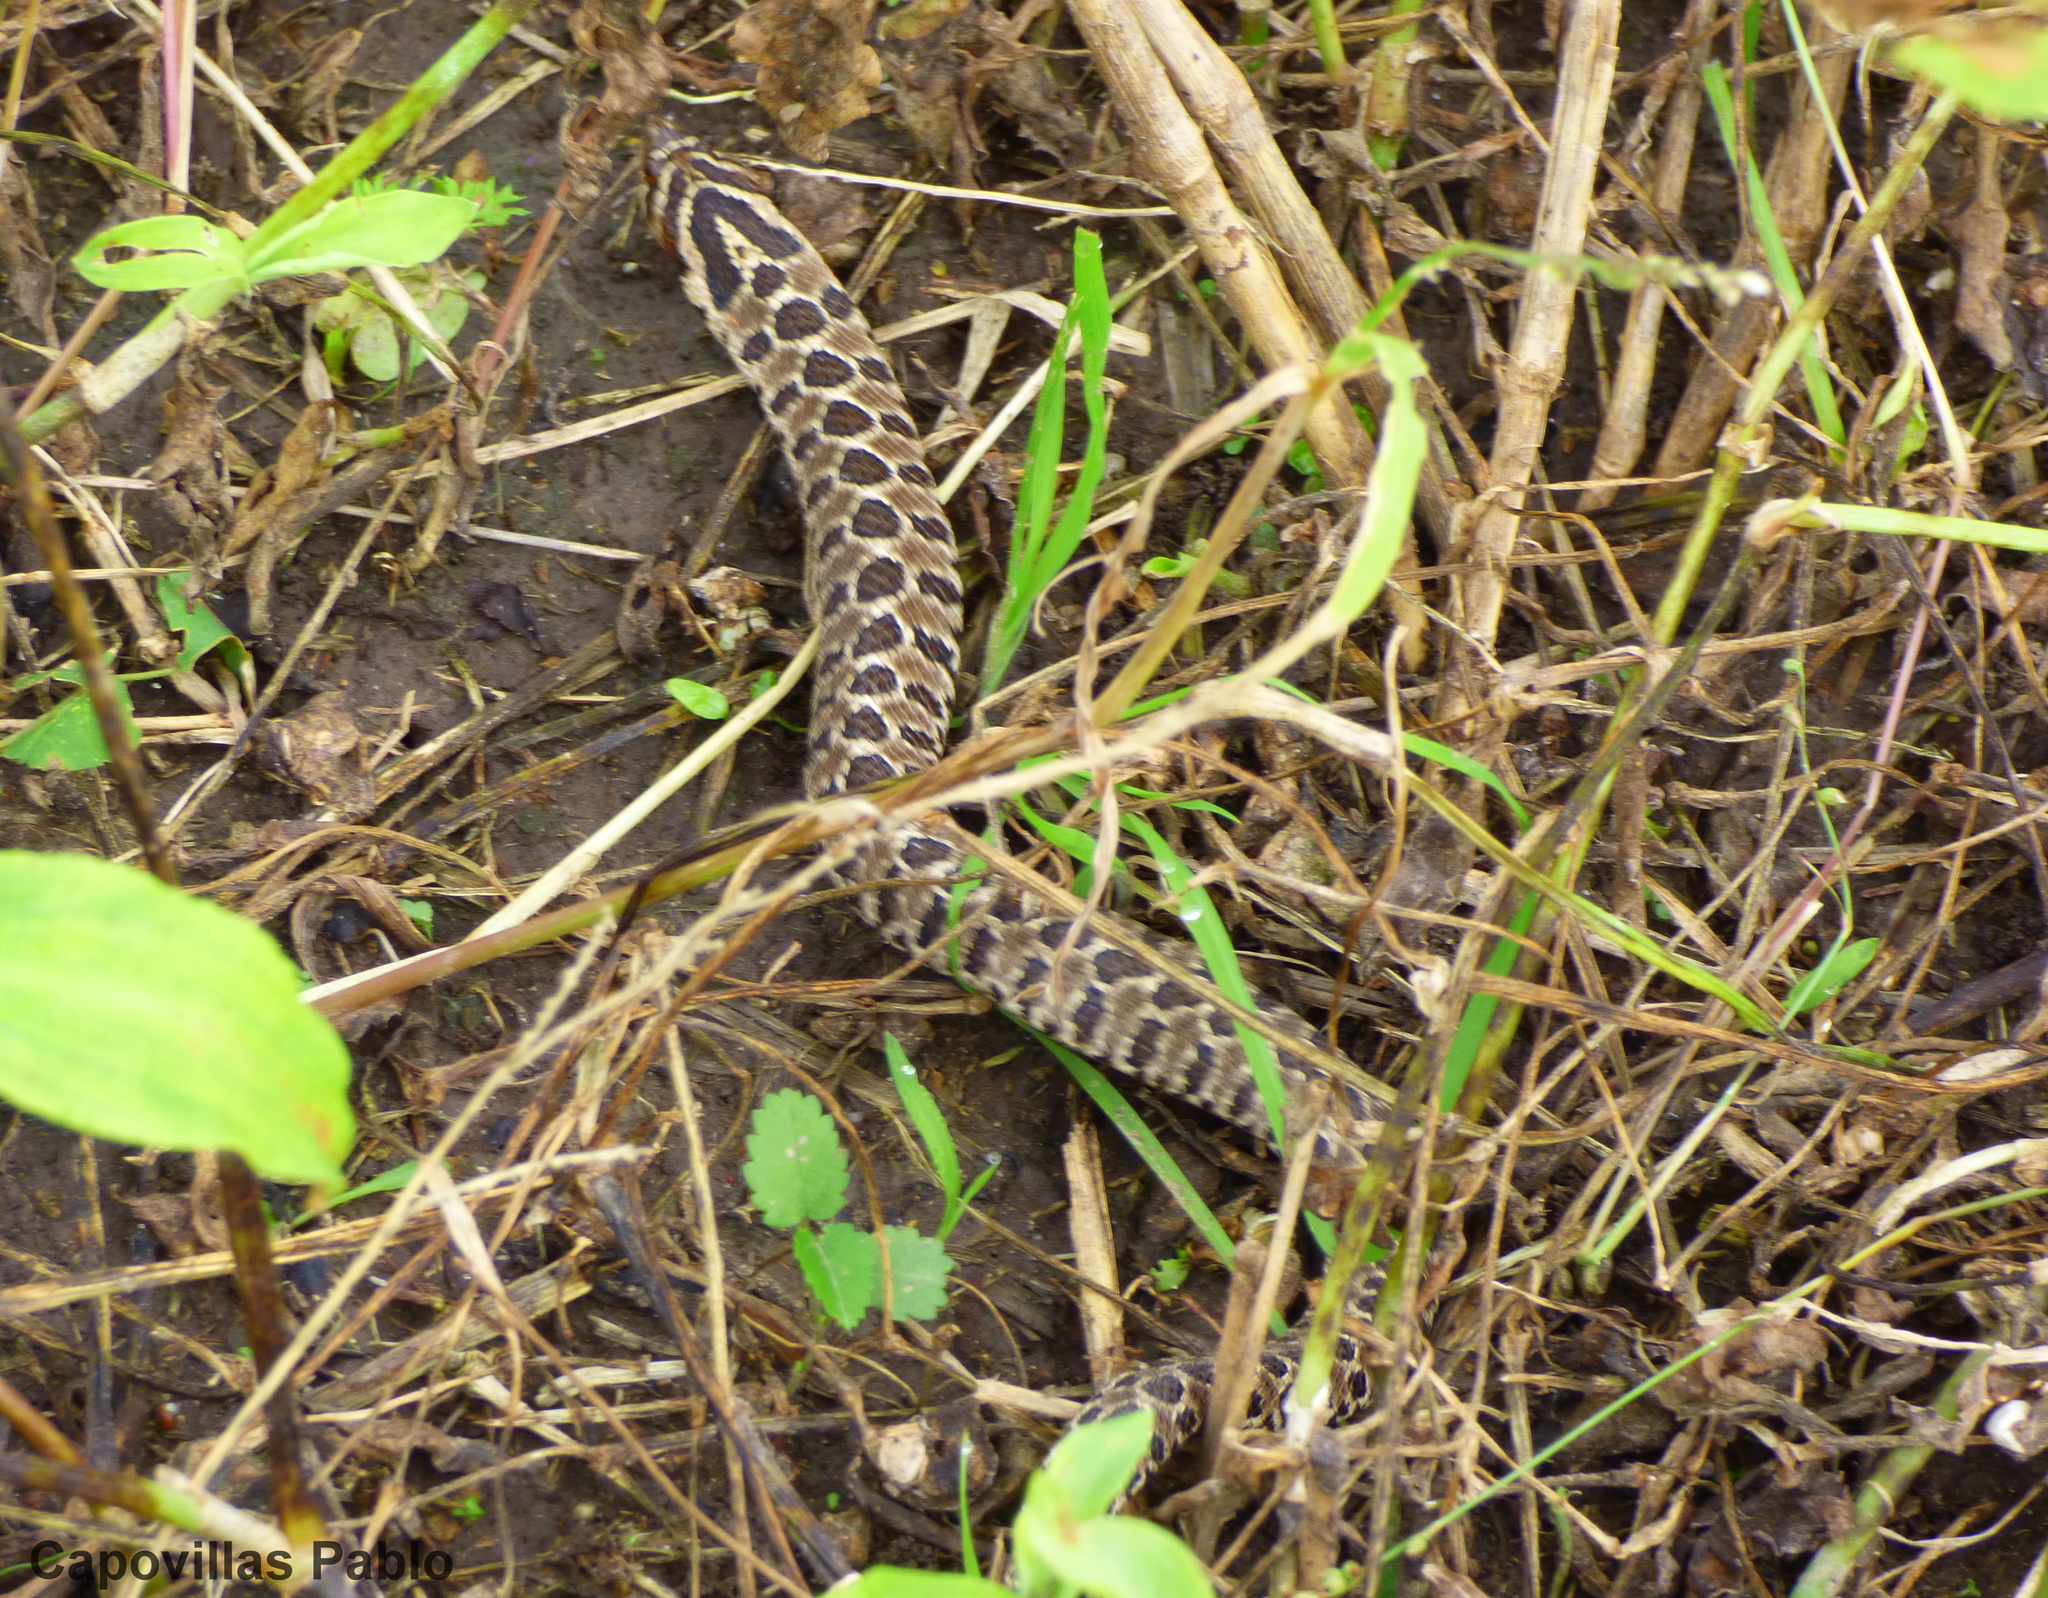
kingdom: Animalia
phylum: Chordata
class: Squamata
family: Colubridae
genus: Xenodon
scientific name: Xenodon dorbignyi
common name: South american hognose snake
